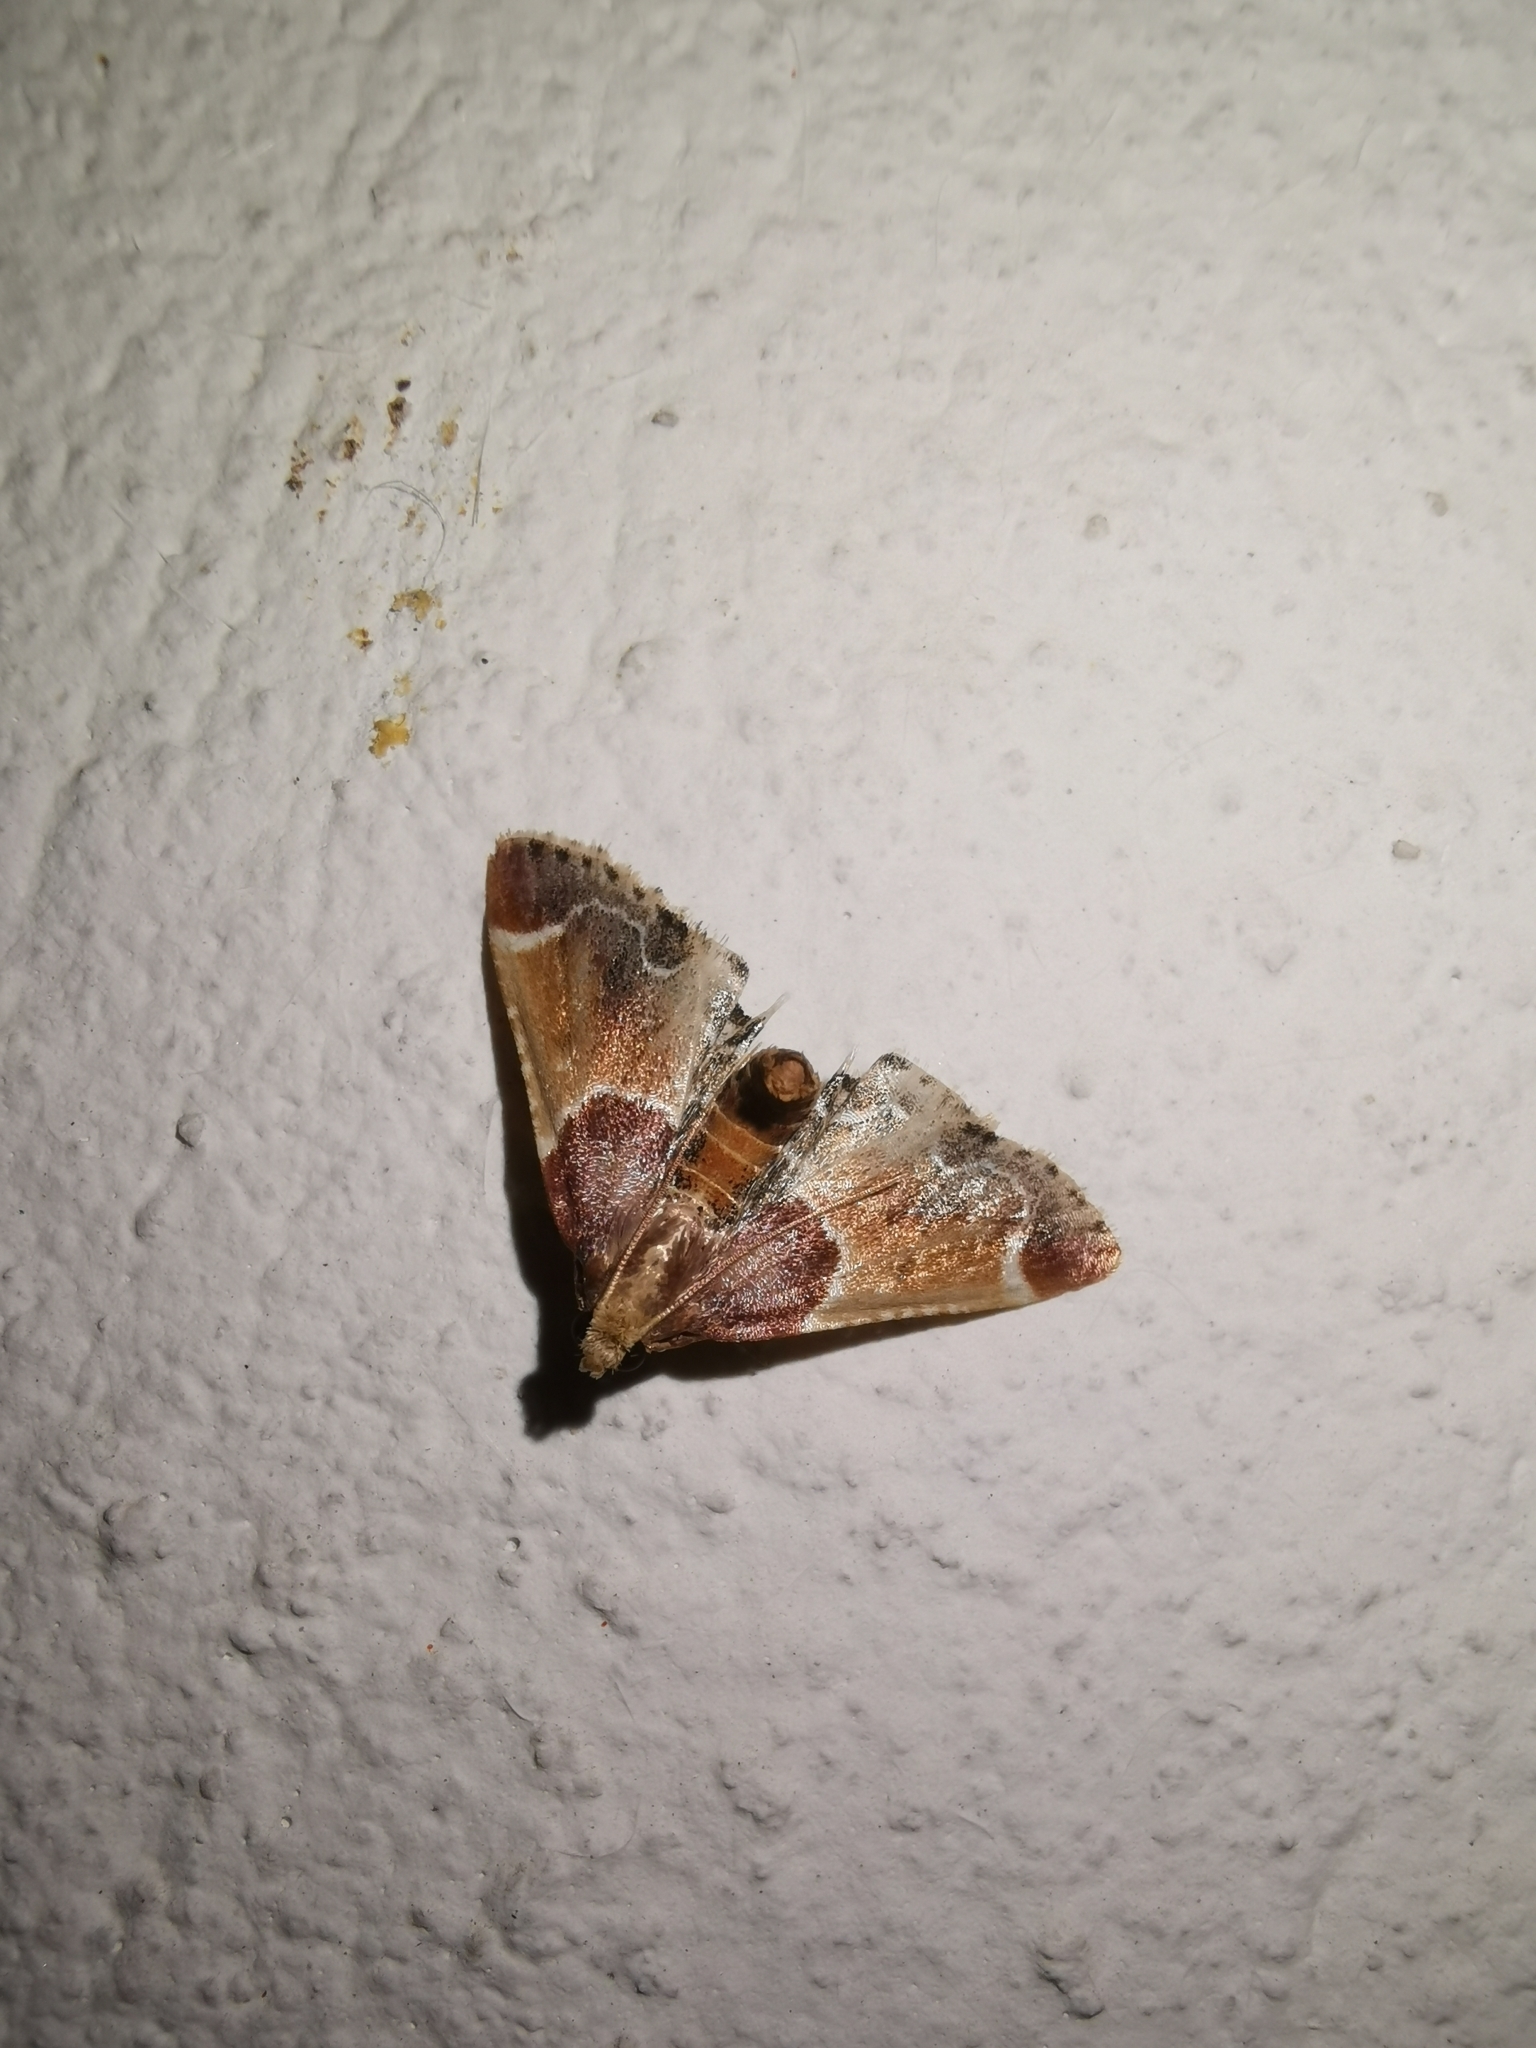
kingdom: Animalia
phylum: Arthropoda
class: Insecta
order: Lepidoptera
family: Pyralidae
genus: Pyralis
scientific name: Pyralis farinalis
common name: Meal moth
